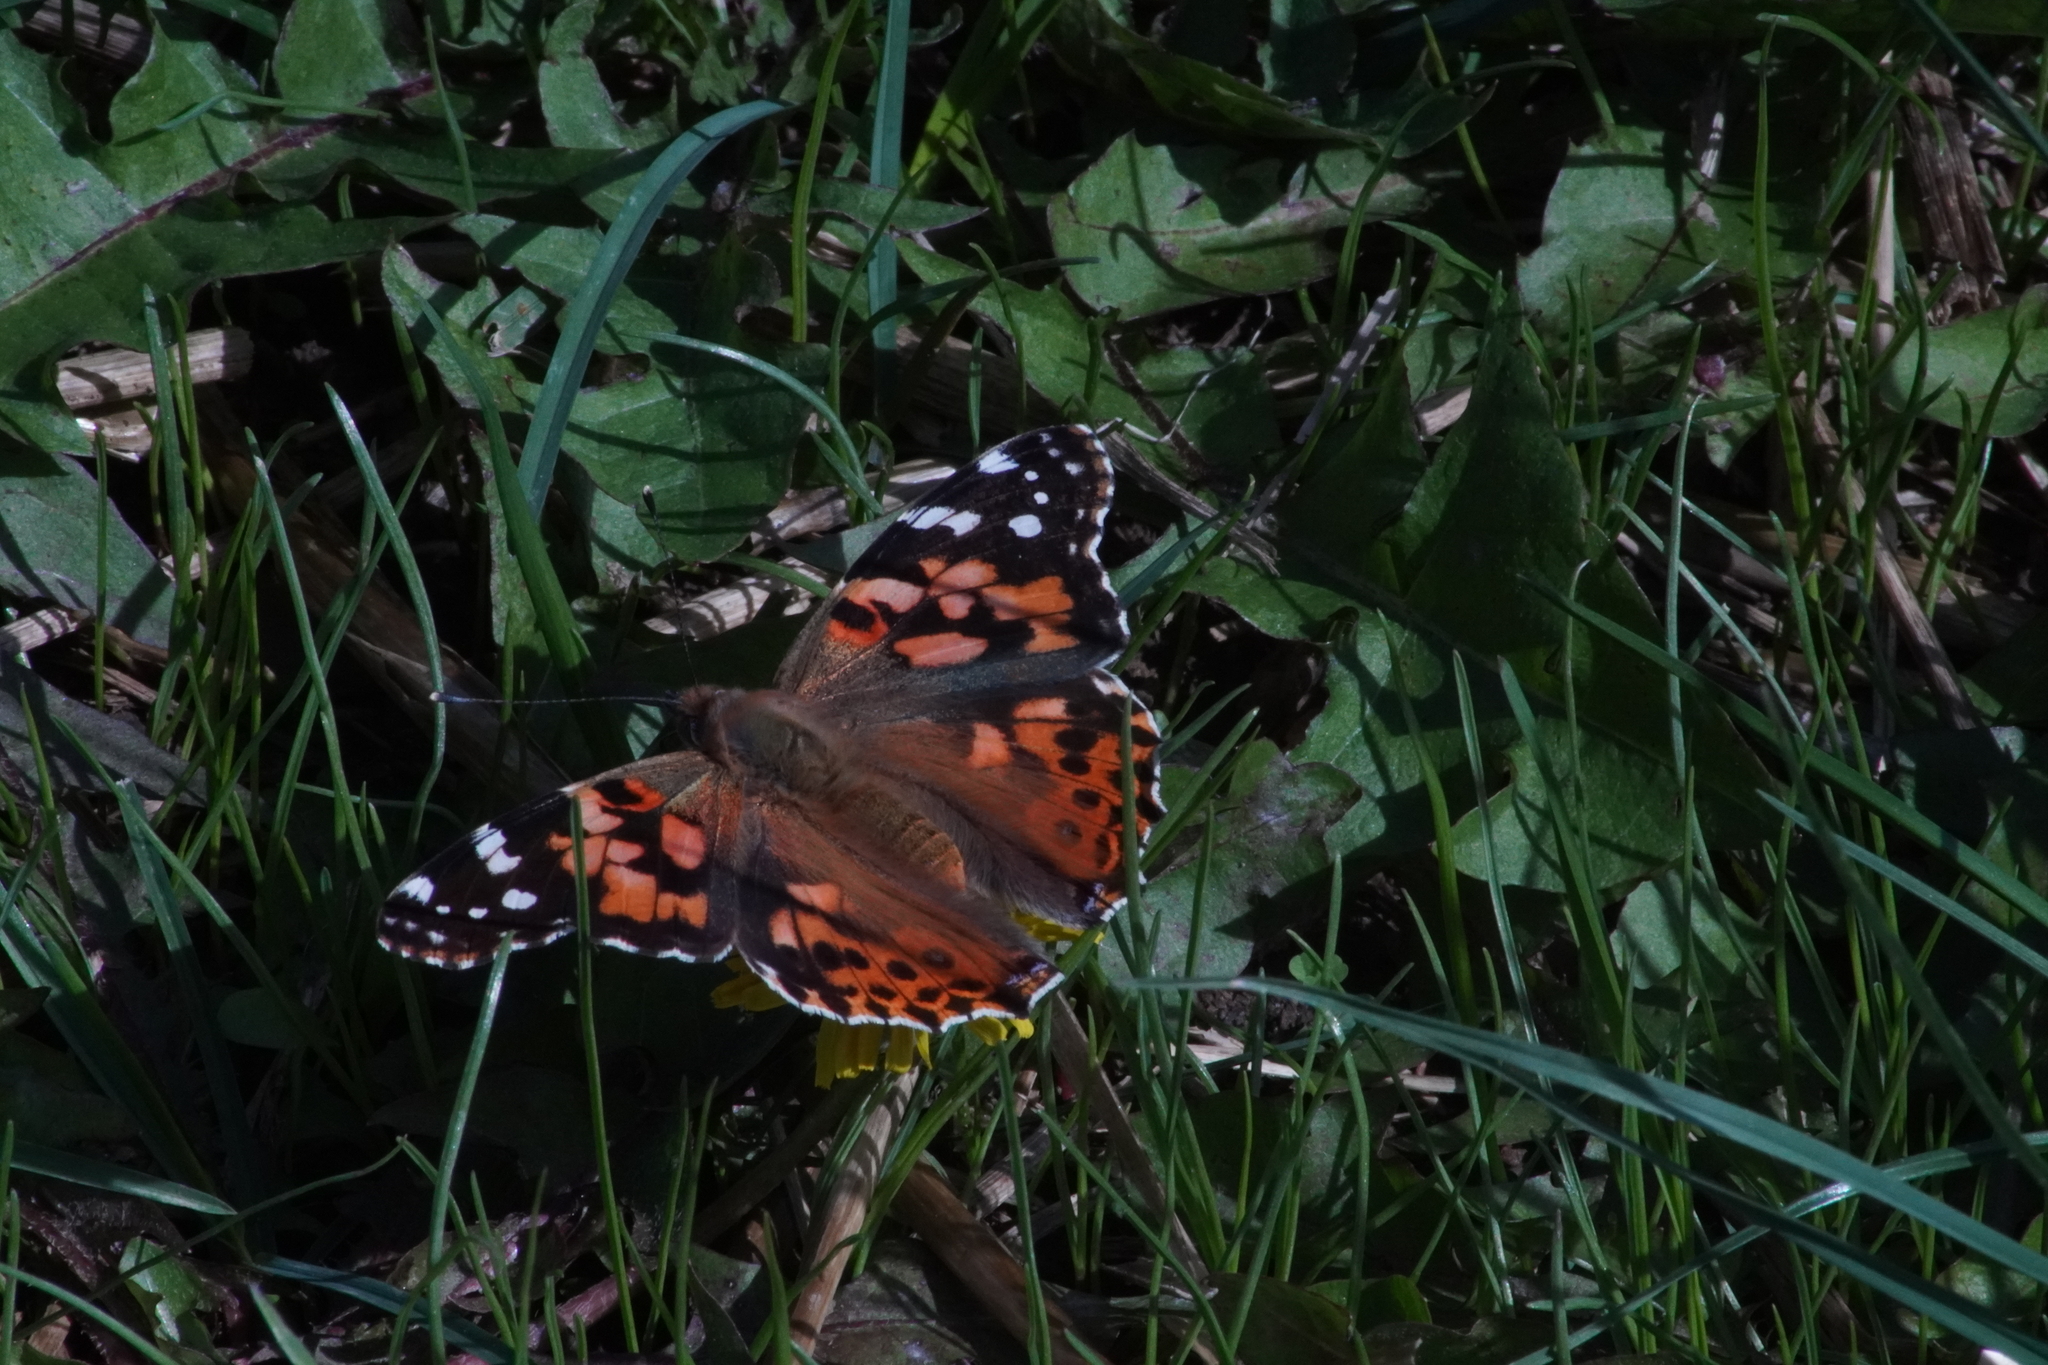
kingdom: Animalia
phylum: Arthropoda
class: Insecta
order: Lepidoptera
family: Nymphalidae
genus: Vanessa
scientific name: Vanessa cardui
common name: Painted lady
